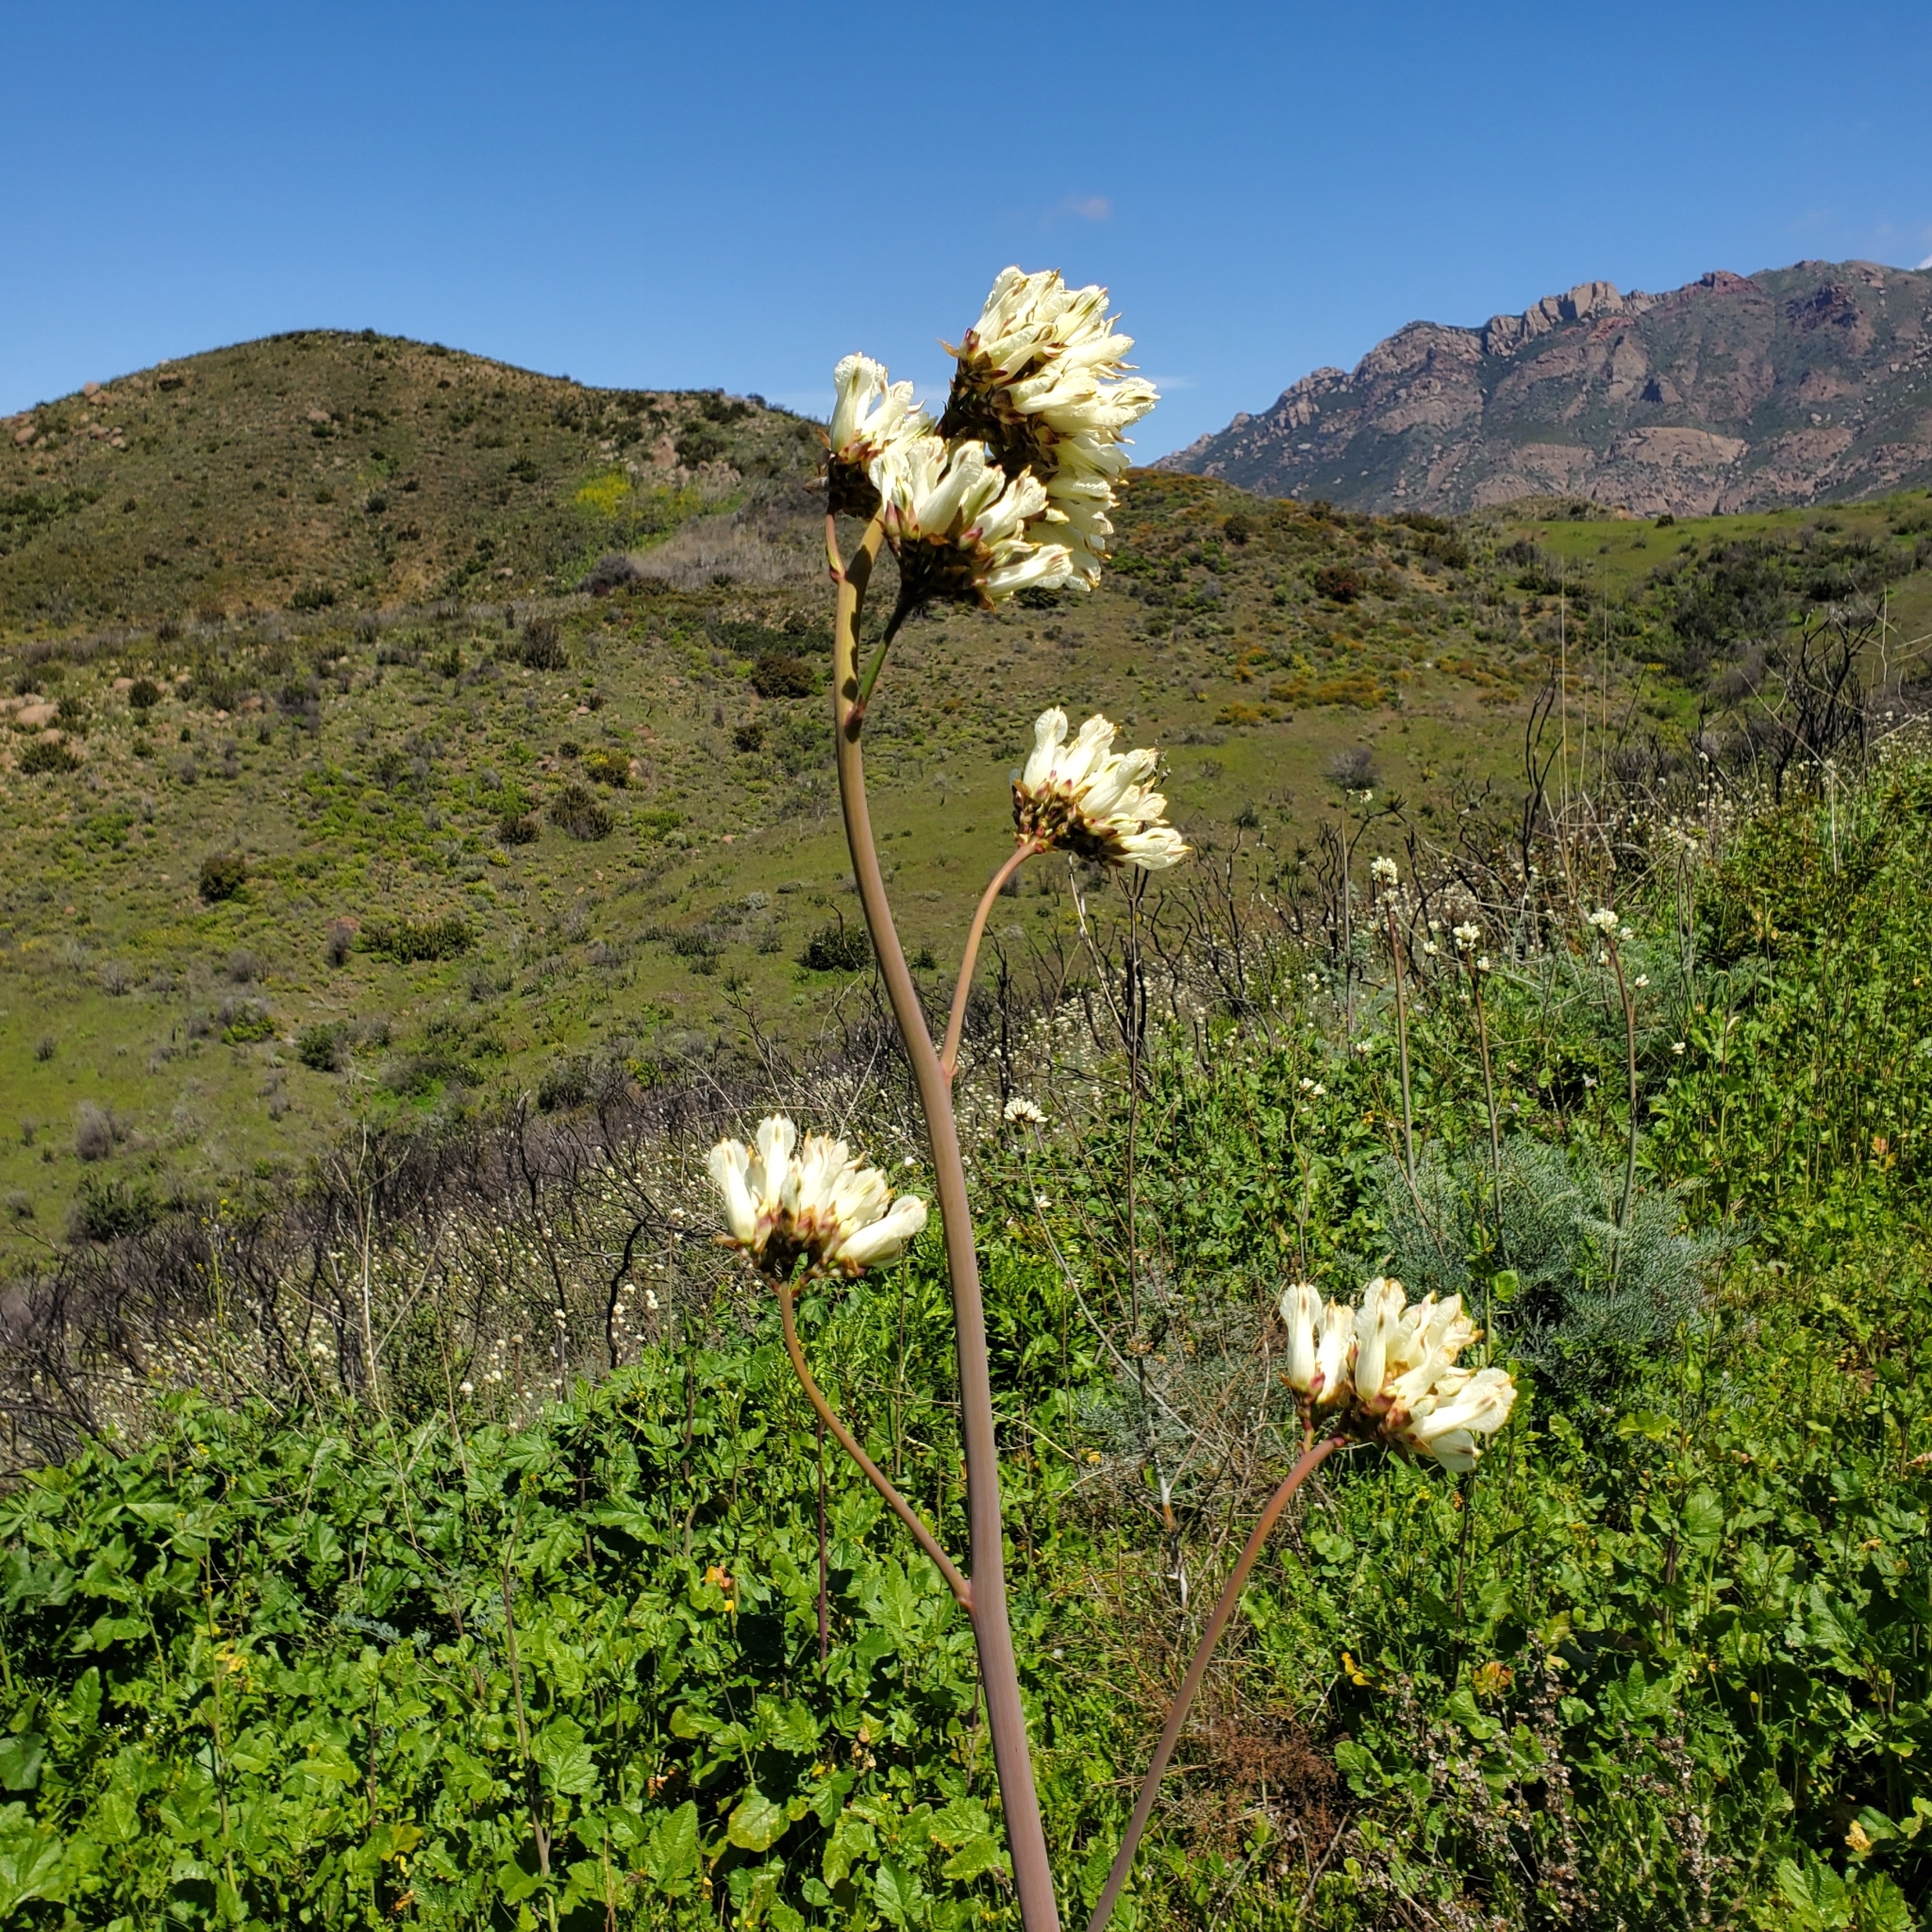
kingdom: Plantae
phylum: Tracheophyta
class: Magnoliopsida
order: Ranunculales
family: Papaveraceae
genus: Ehrendorferia
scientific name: Ehrendorferia ochroleuca
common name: White eardrops
